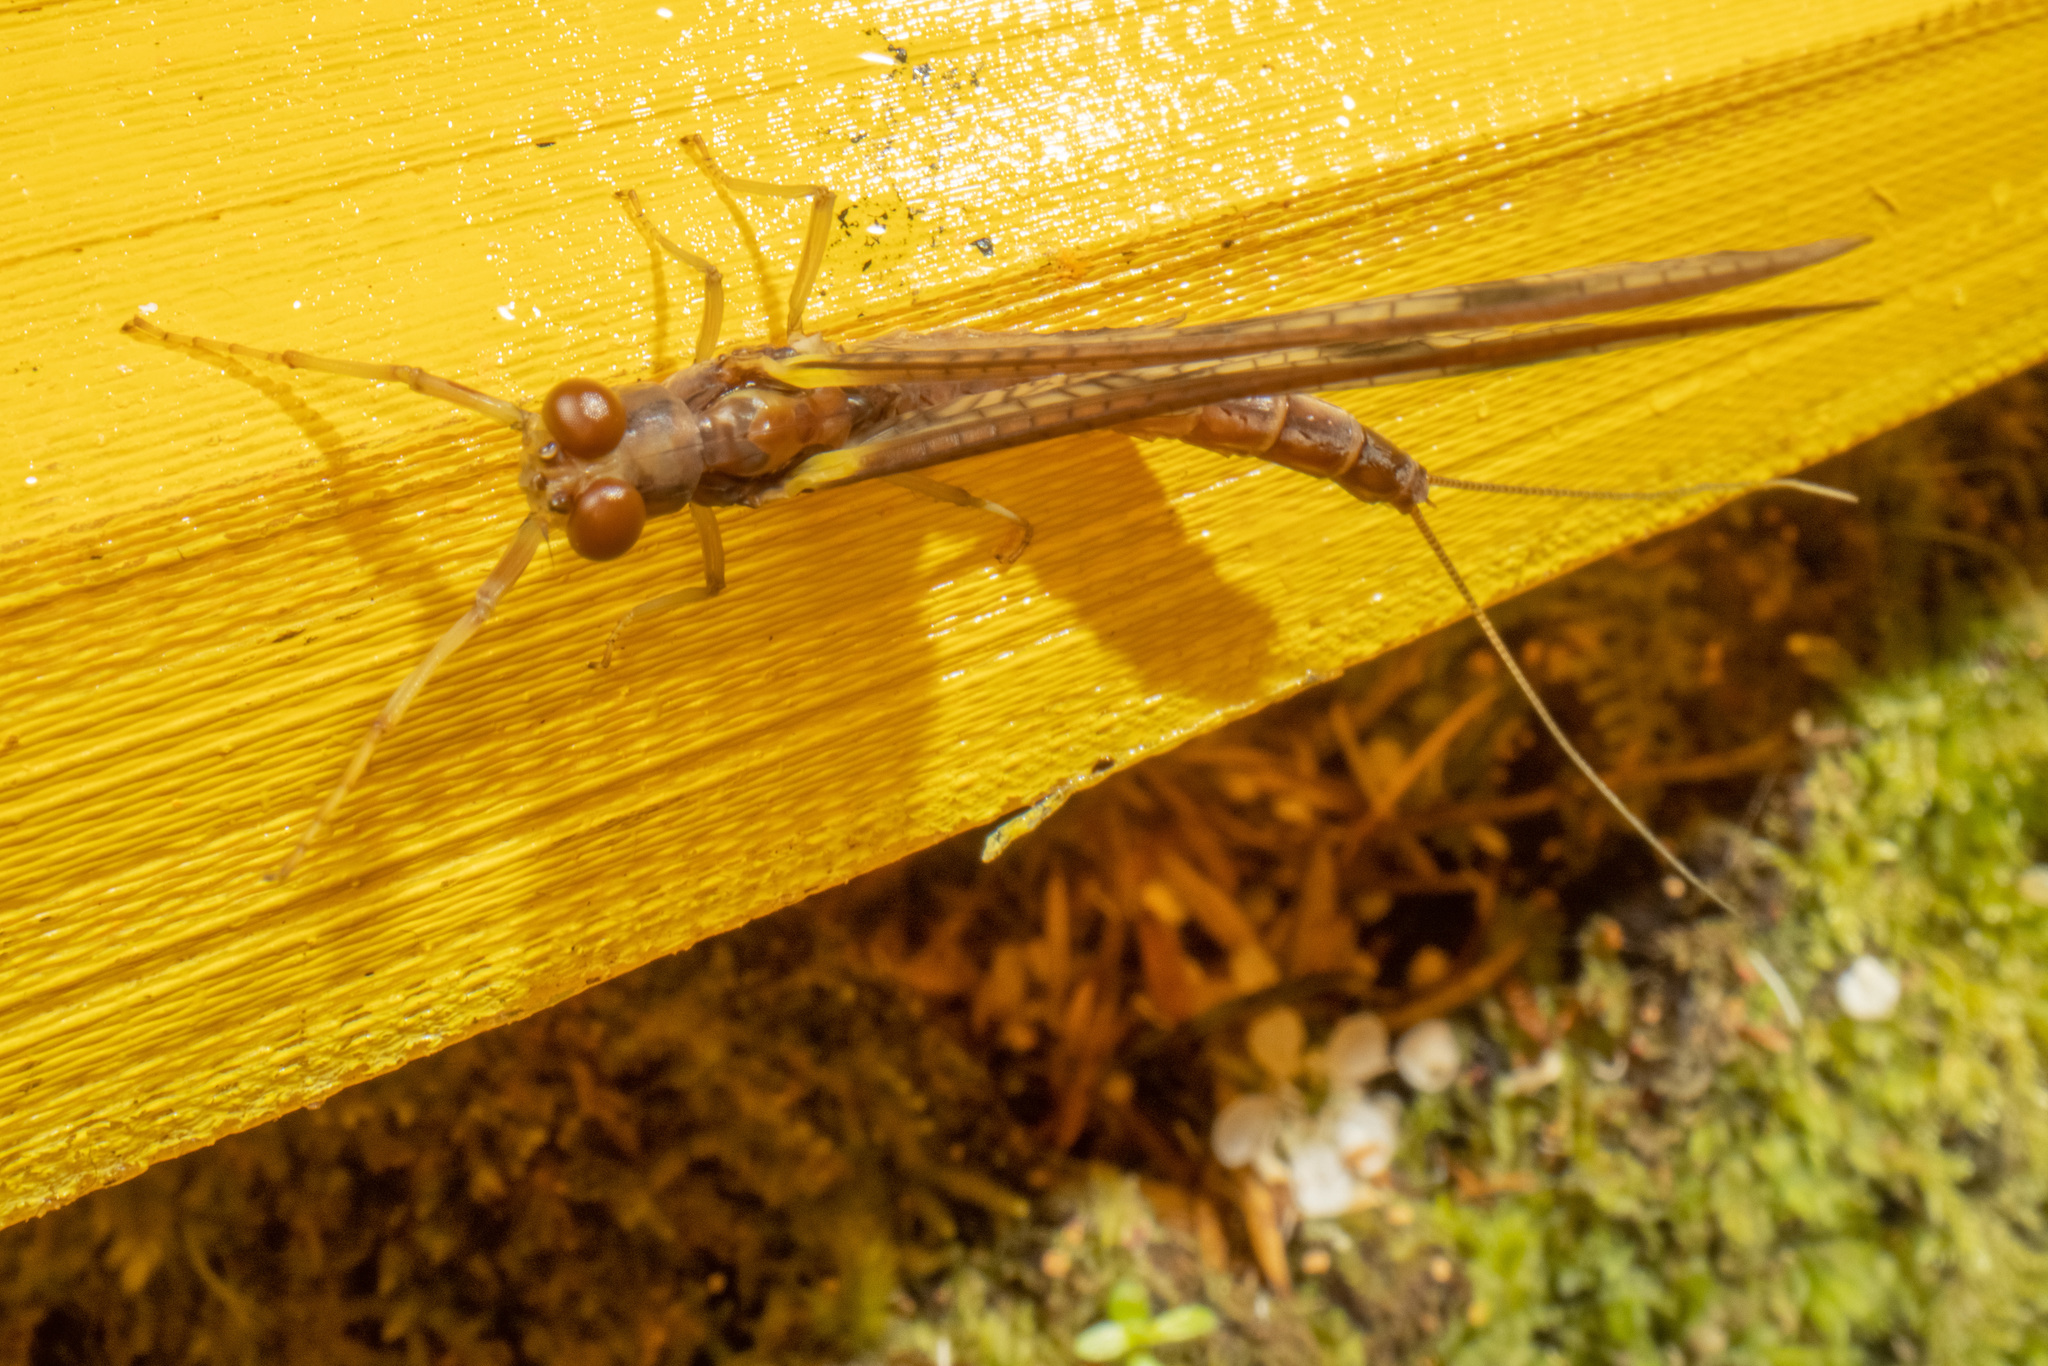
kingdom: Animalia
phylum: Arthropoda
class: Insecta
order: Ephemeroptera
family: Ichthybotidae
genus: Ichthybotus
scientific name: Ichthybotus hudsoni
